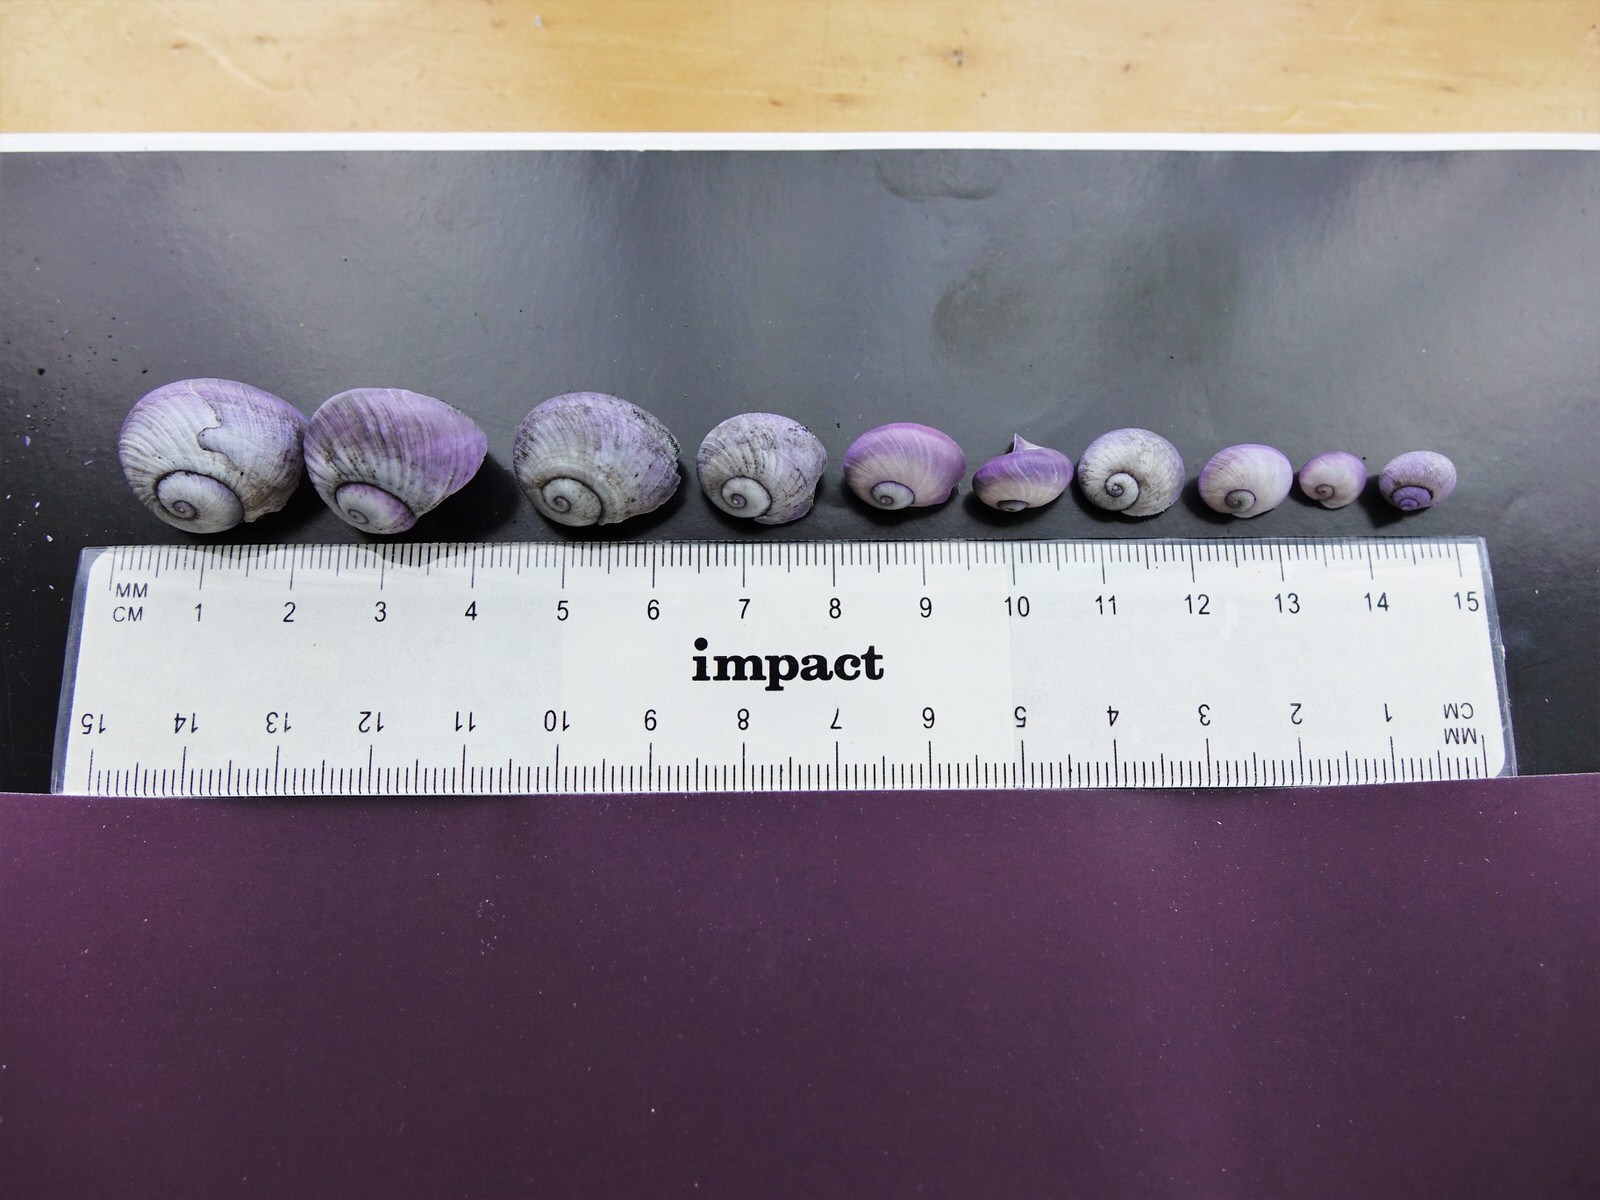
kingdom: Animalia
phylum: Mollusca
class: Gastropoda
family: Epitoniidae
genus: Janthina
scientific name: Janthina janthina
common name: Common janthina
